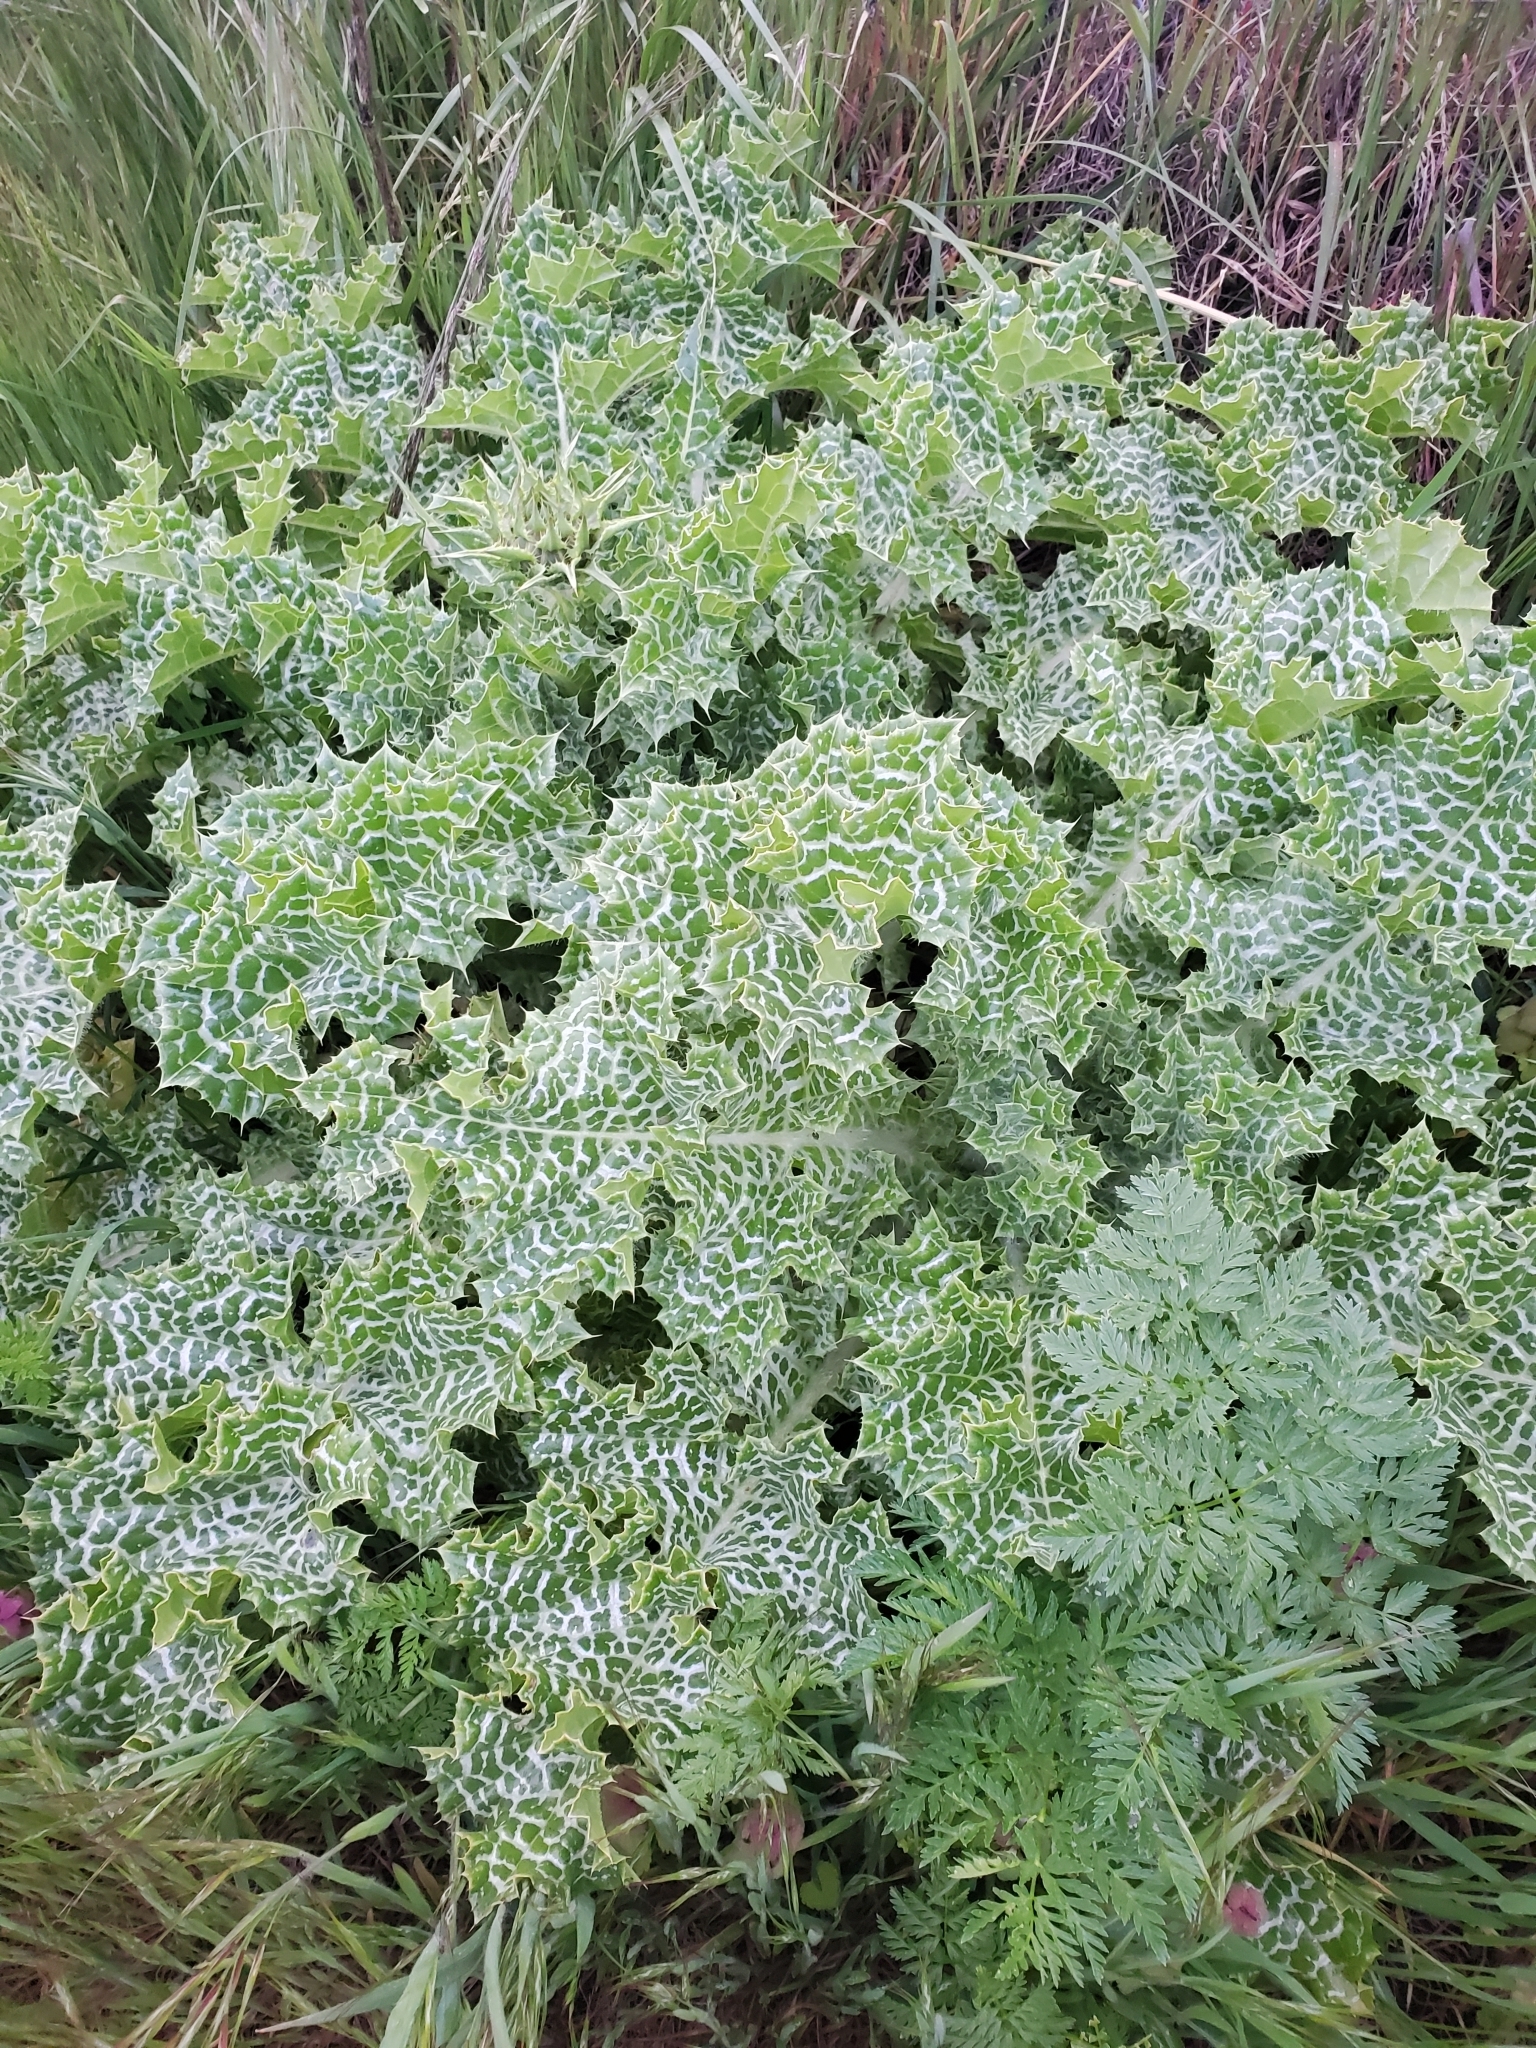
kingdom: Plantae
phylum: Tracheophyta
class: Magnoliopsida
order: Asterales
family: Asteraceae
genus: Silybum
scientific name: Silybum marianum
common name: Milk thistle
